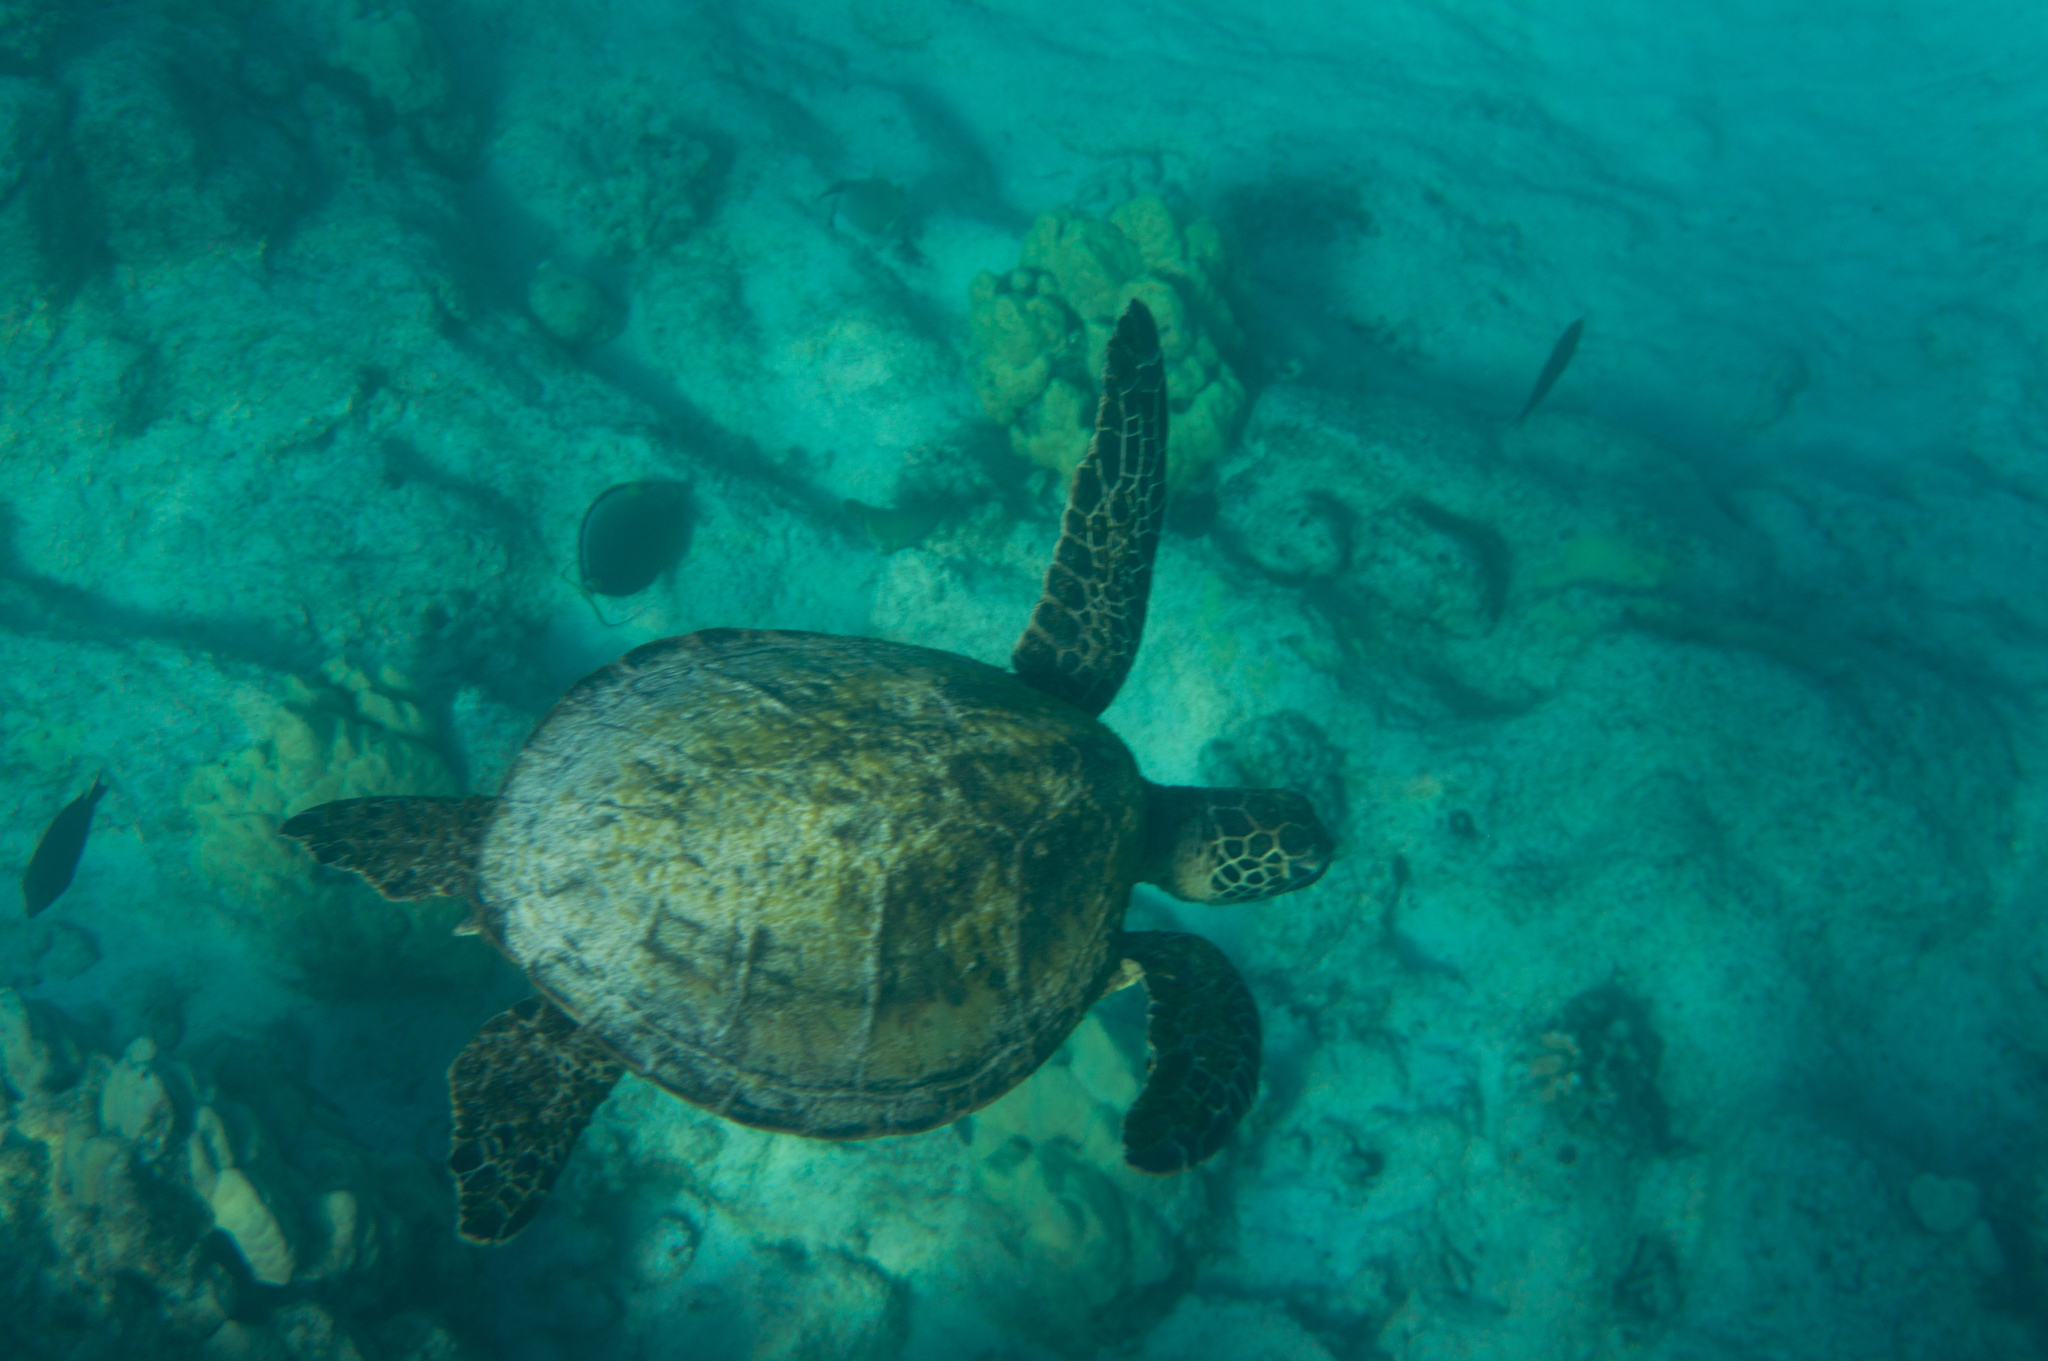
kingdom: Animalia
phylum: Chordata
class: Testudines
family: Cheloniidae
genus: Chelonia
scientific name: Chelonia mydas
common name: Green turtle
